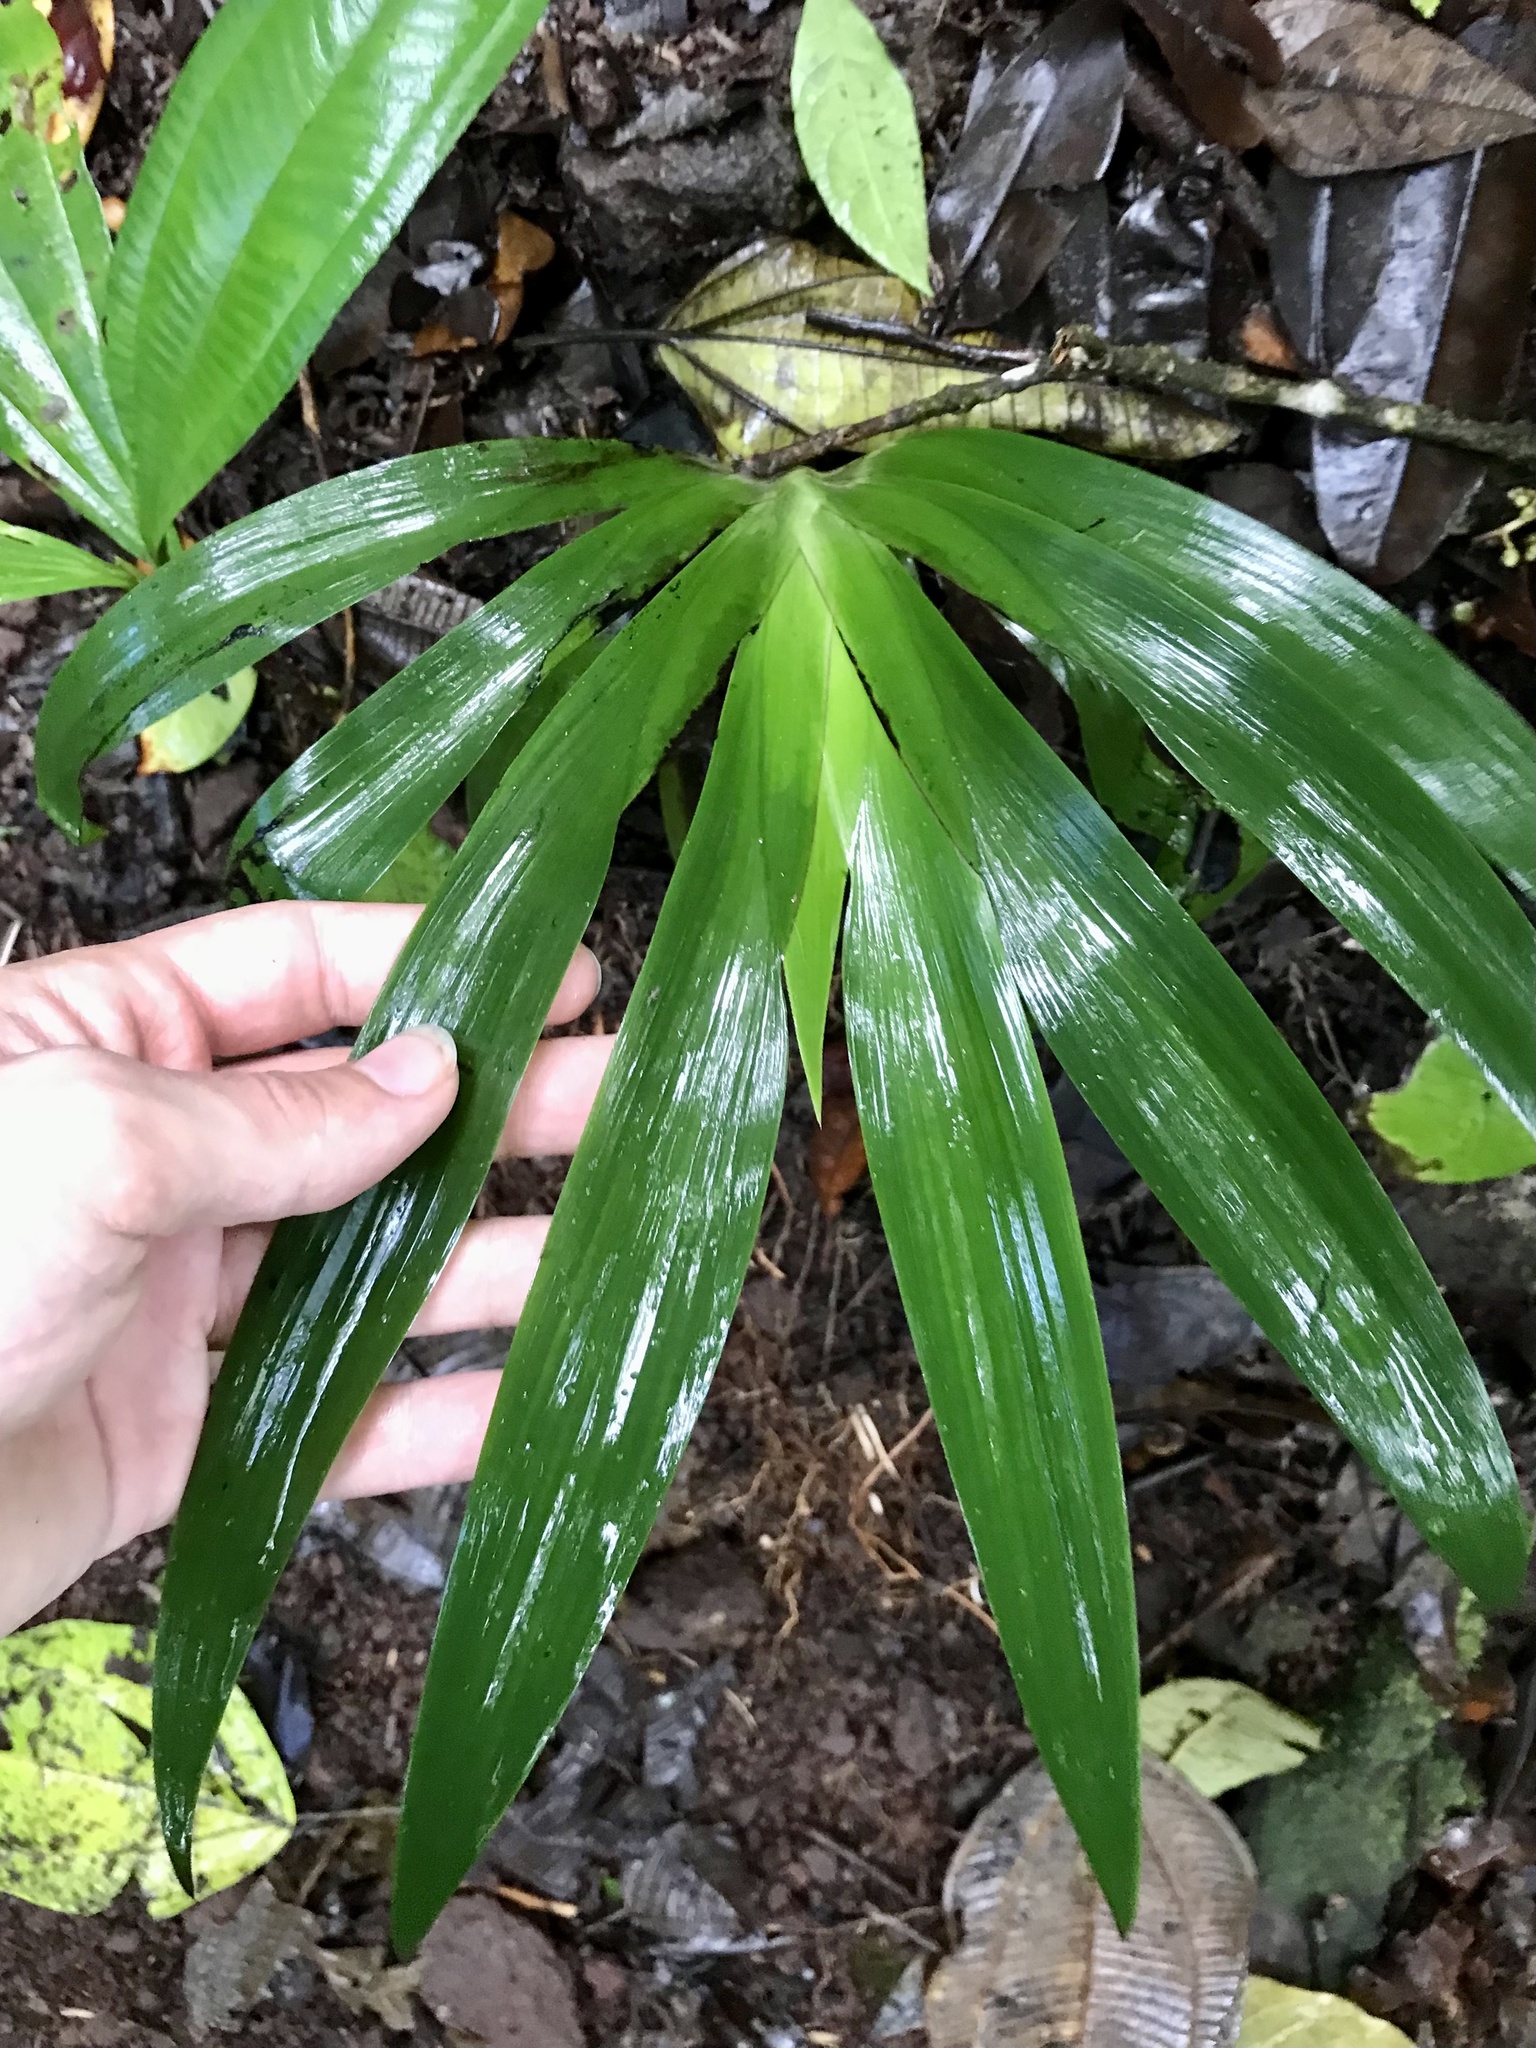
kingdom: Plantae
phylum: Tracheophyta
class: Liliopsida
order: Commelinales
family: Haemodoraceae
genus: Xiphidium
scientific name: Xiphidium caeruleum
